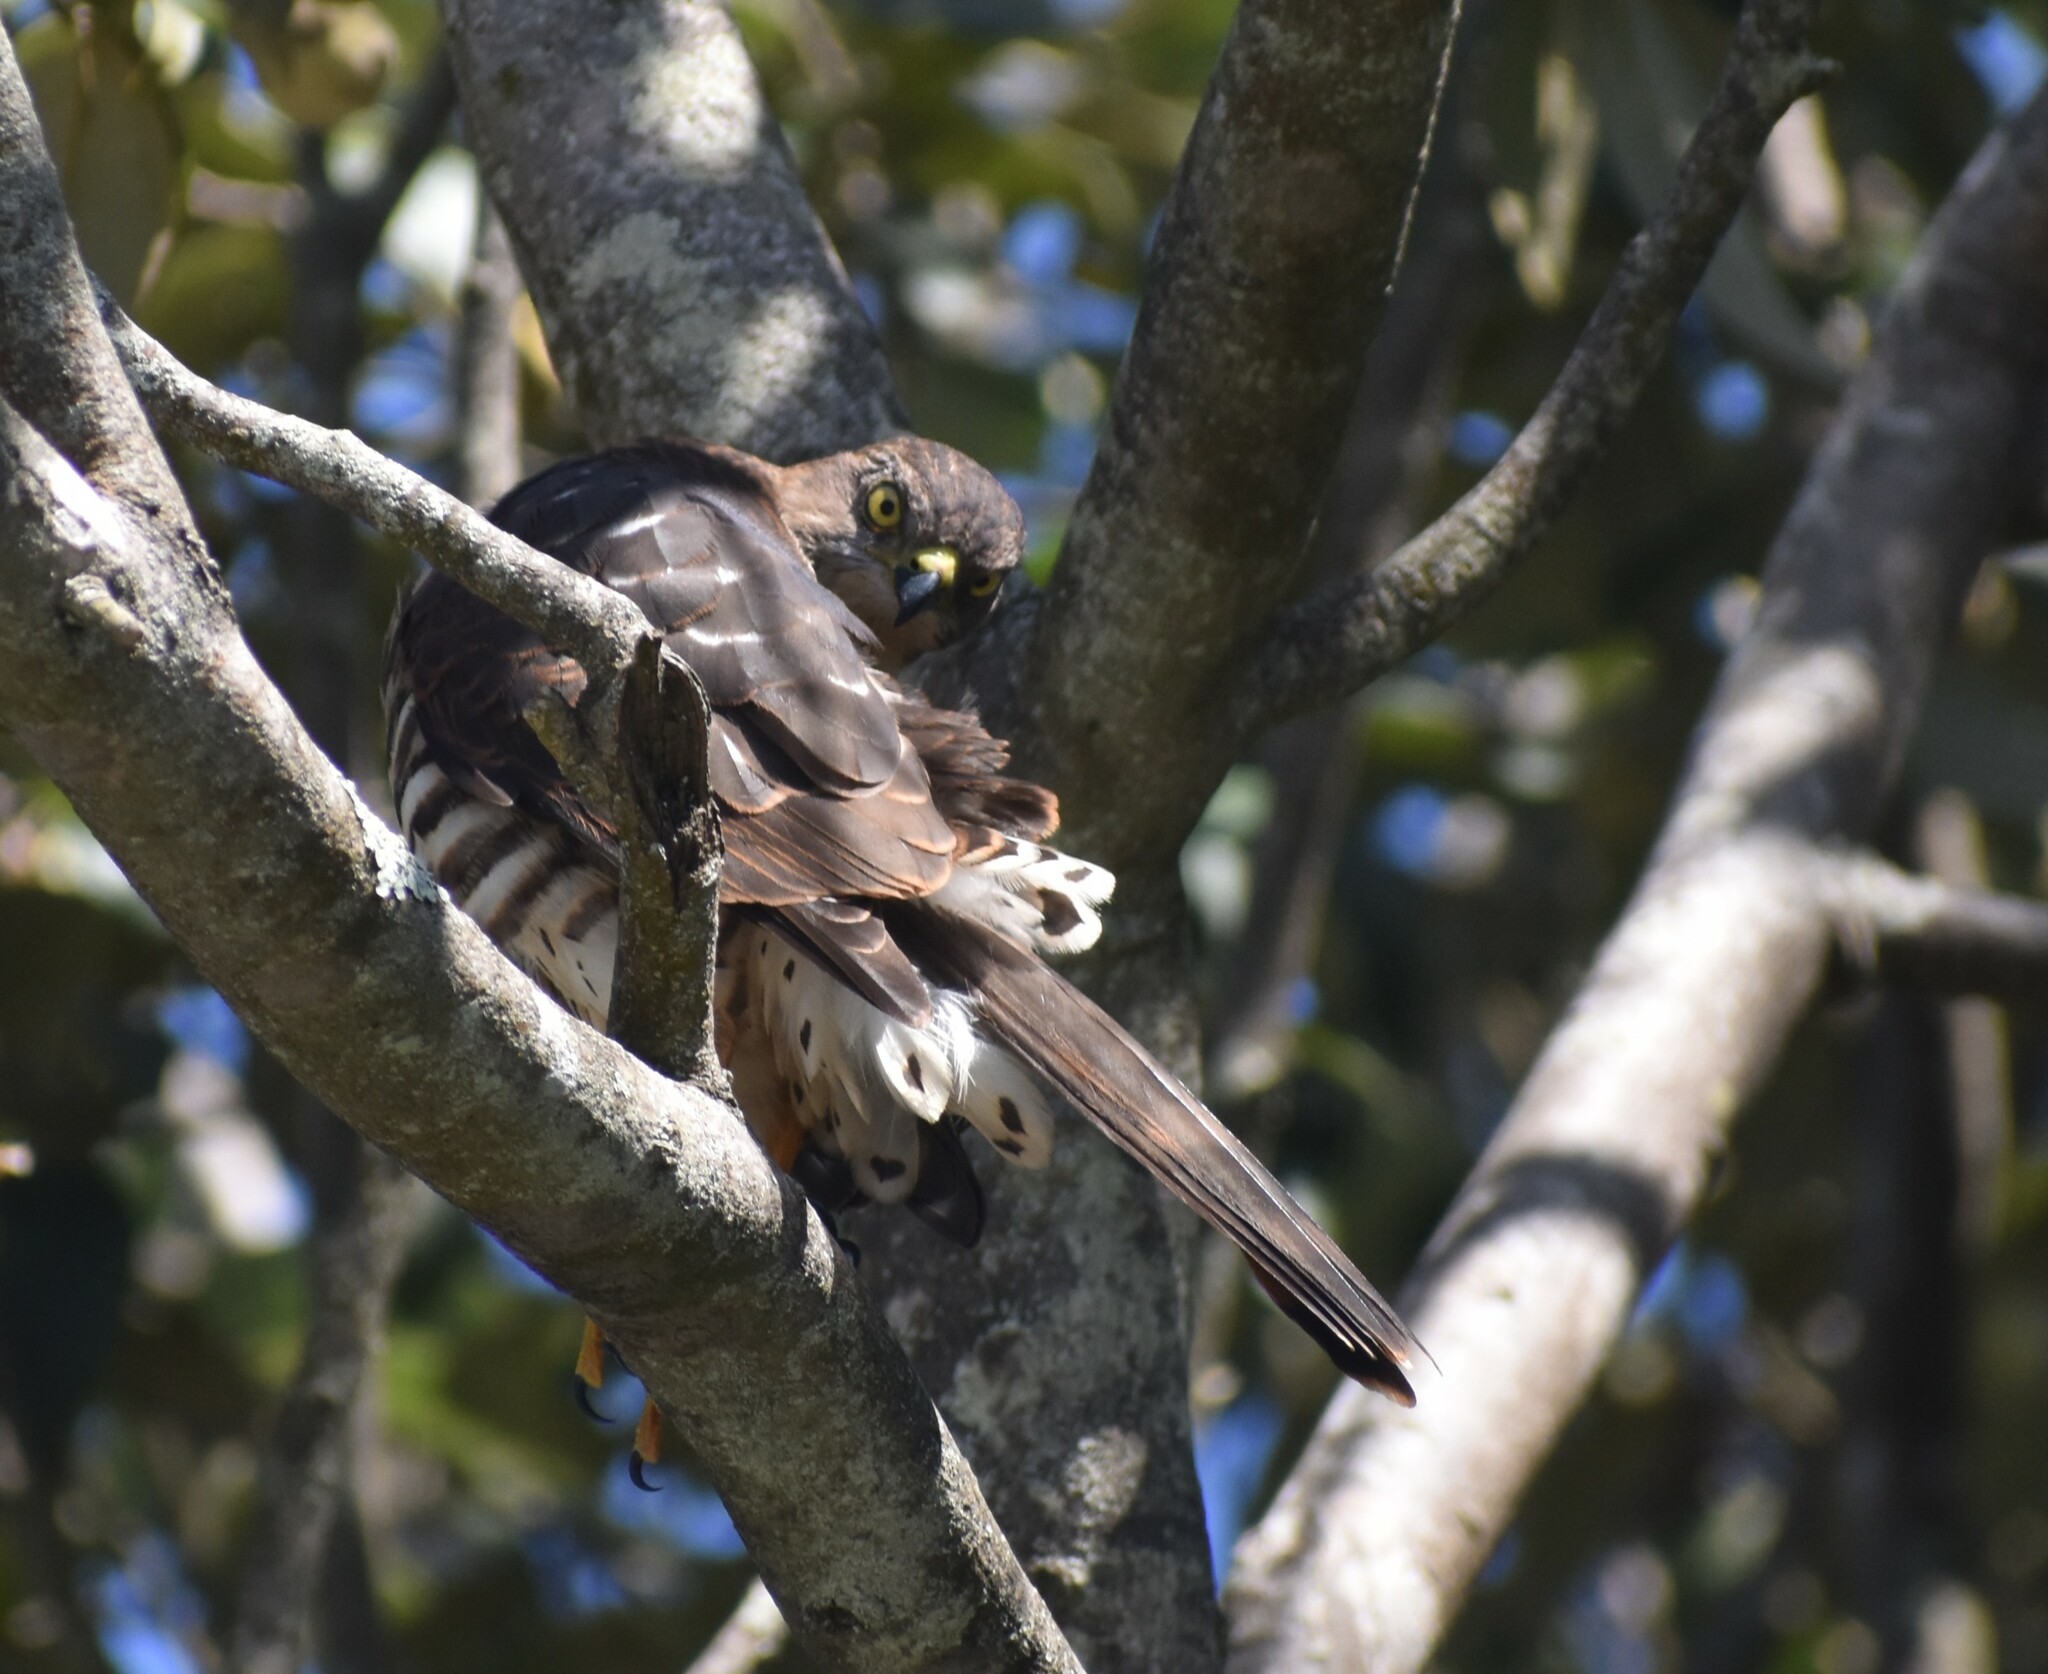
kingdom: Animalia
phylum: Chordata
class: Aves
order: Accipitriformes
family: Accipitridae
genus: Accipiter
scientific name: Accipiter minullus
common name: Little sparrowhawk
